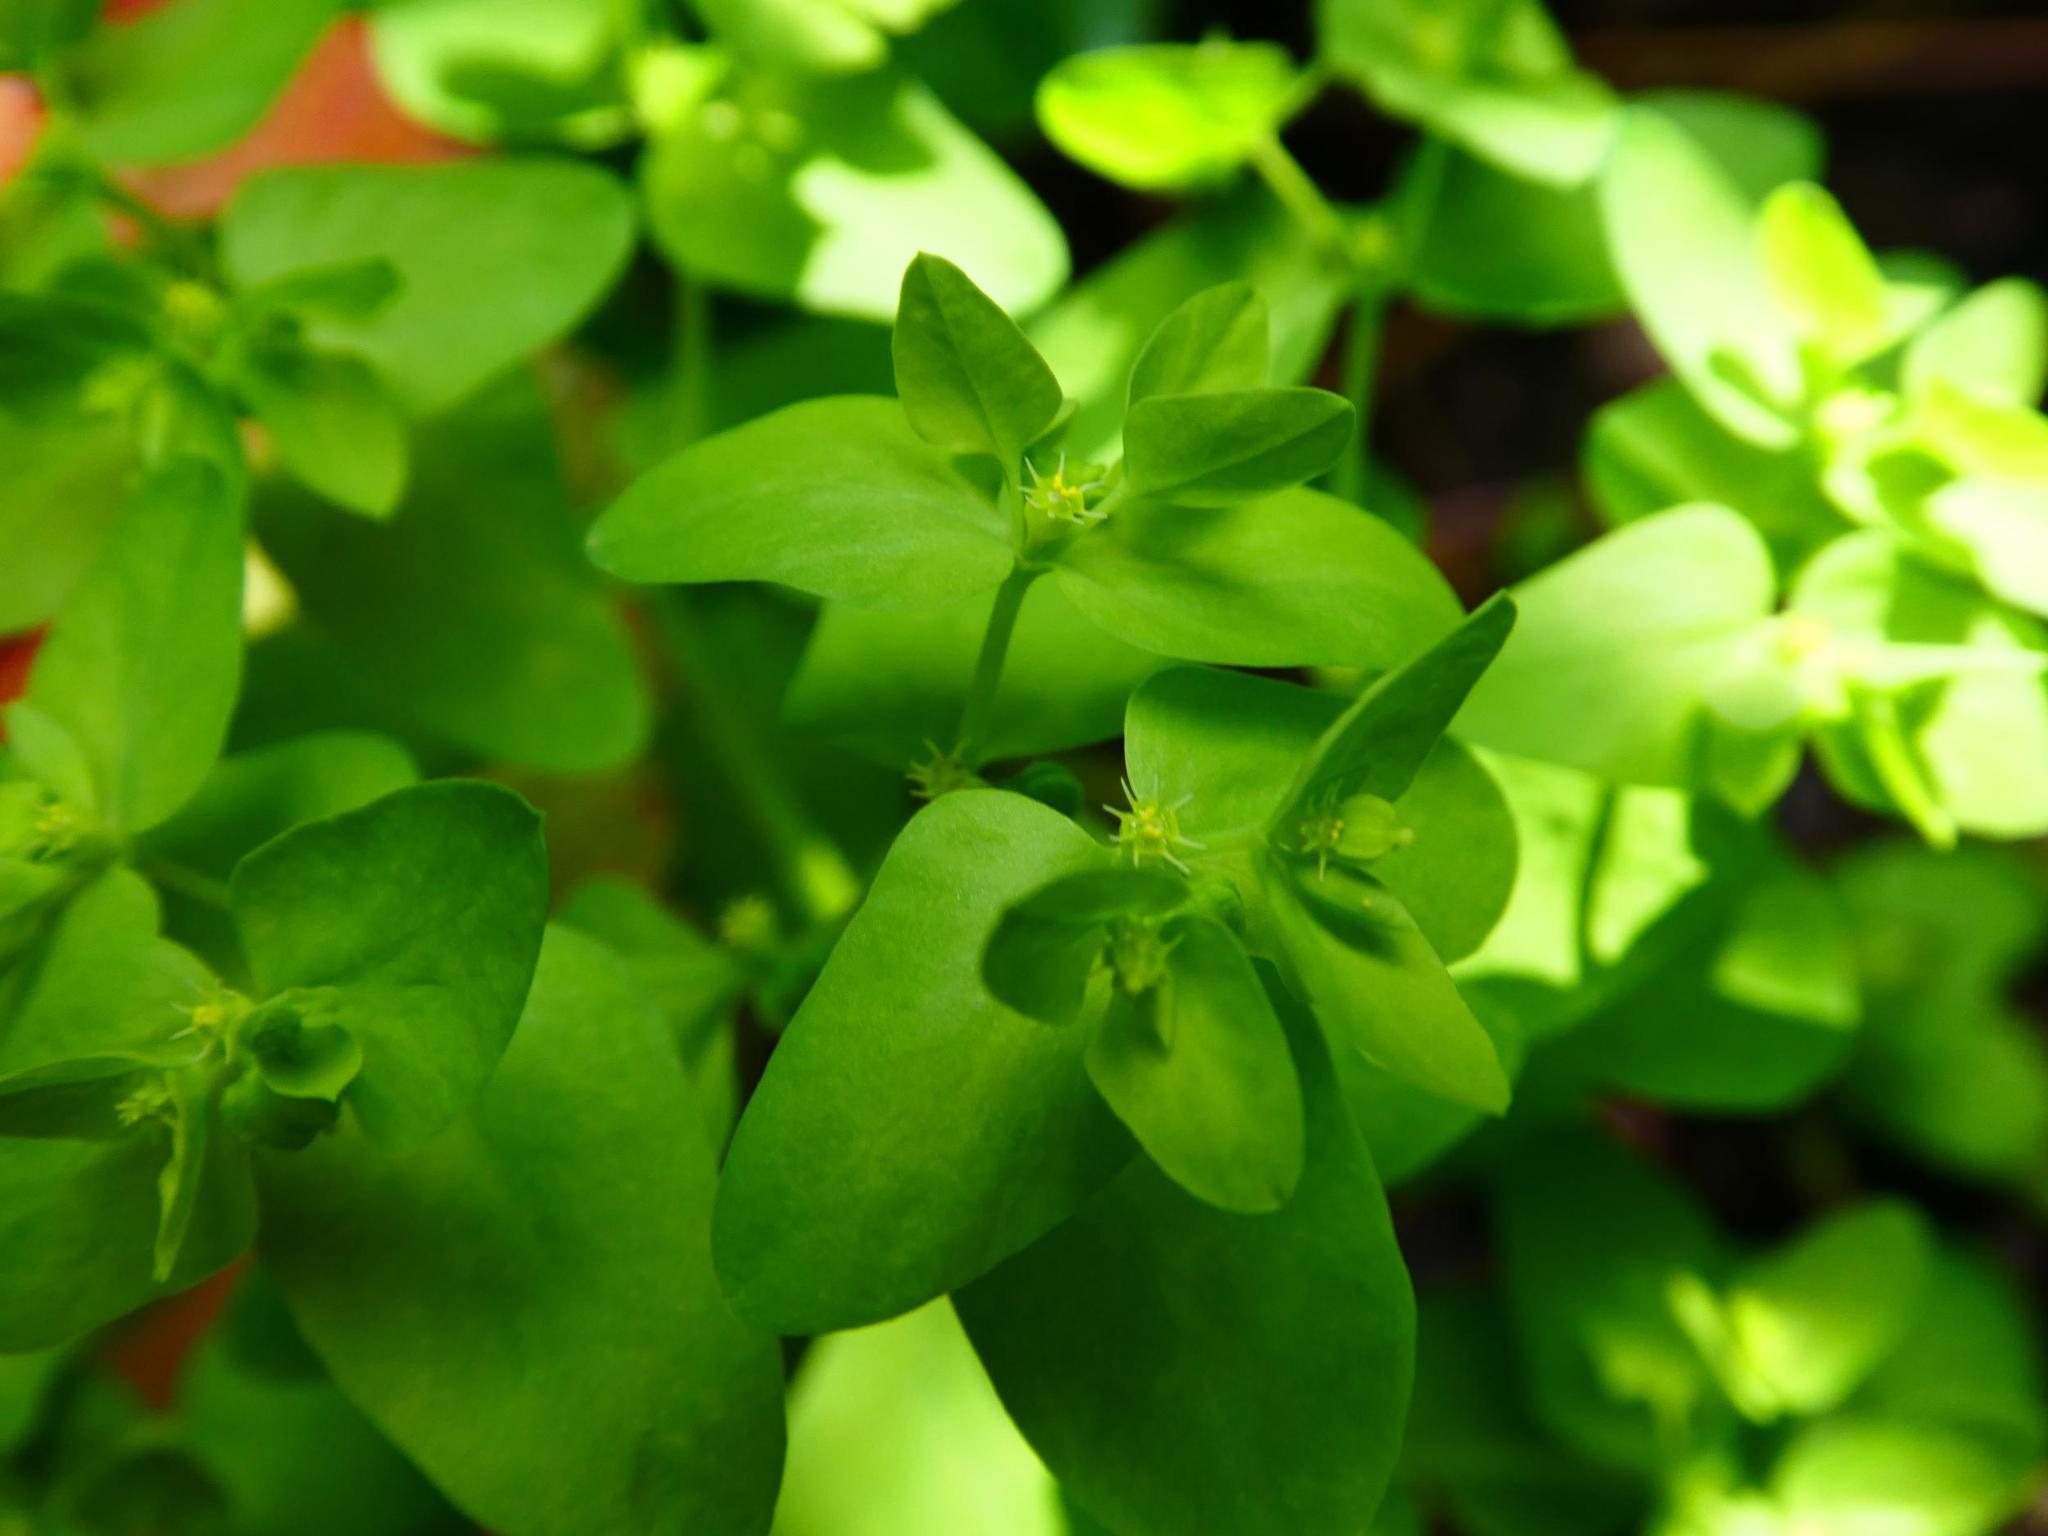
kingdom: Plantae
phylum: Tracheophyta
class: Magnoliopsida
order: Malpighiales
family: Euphorbiaceae
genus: Euphorbia
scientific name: Euphorbia peplus
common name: Petty spurge
